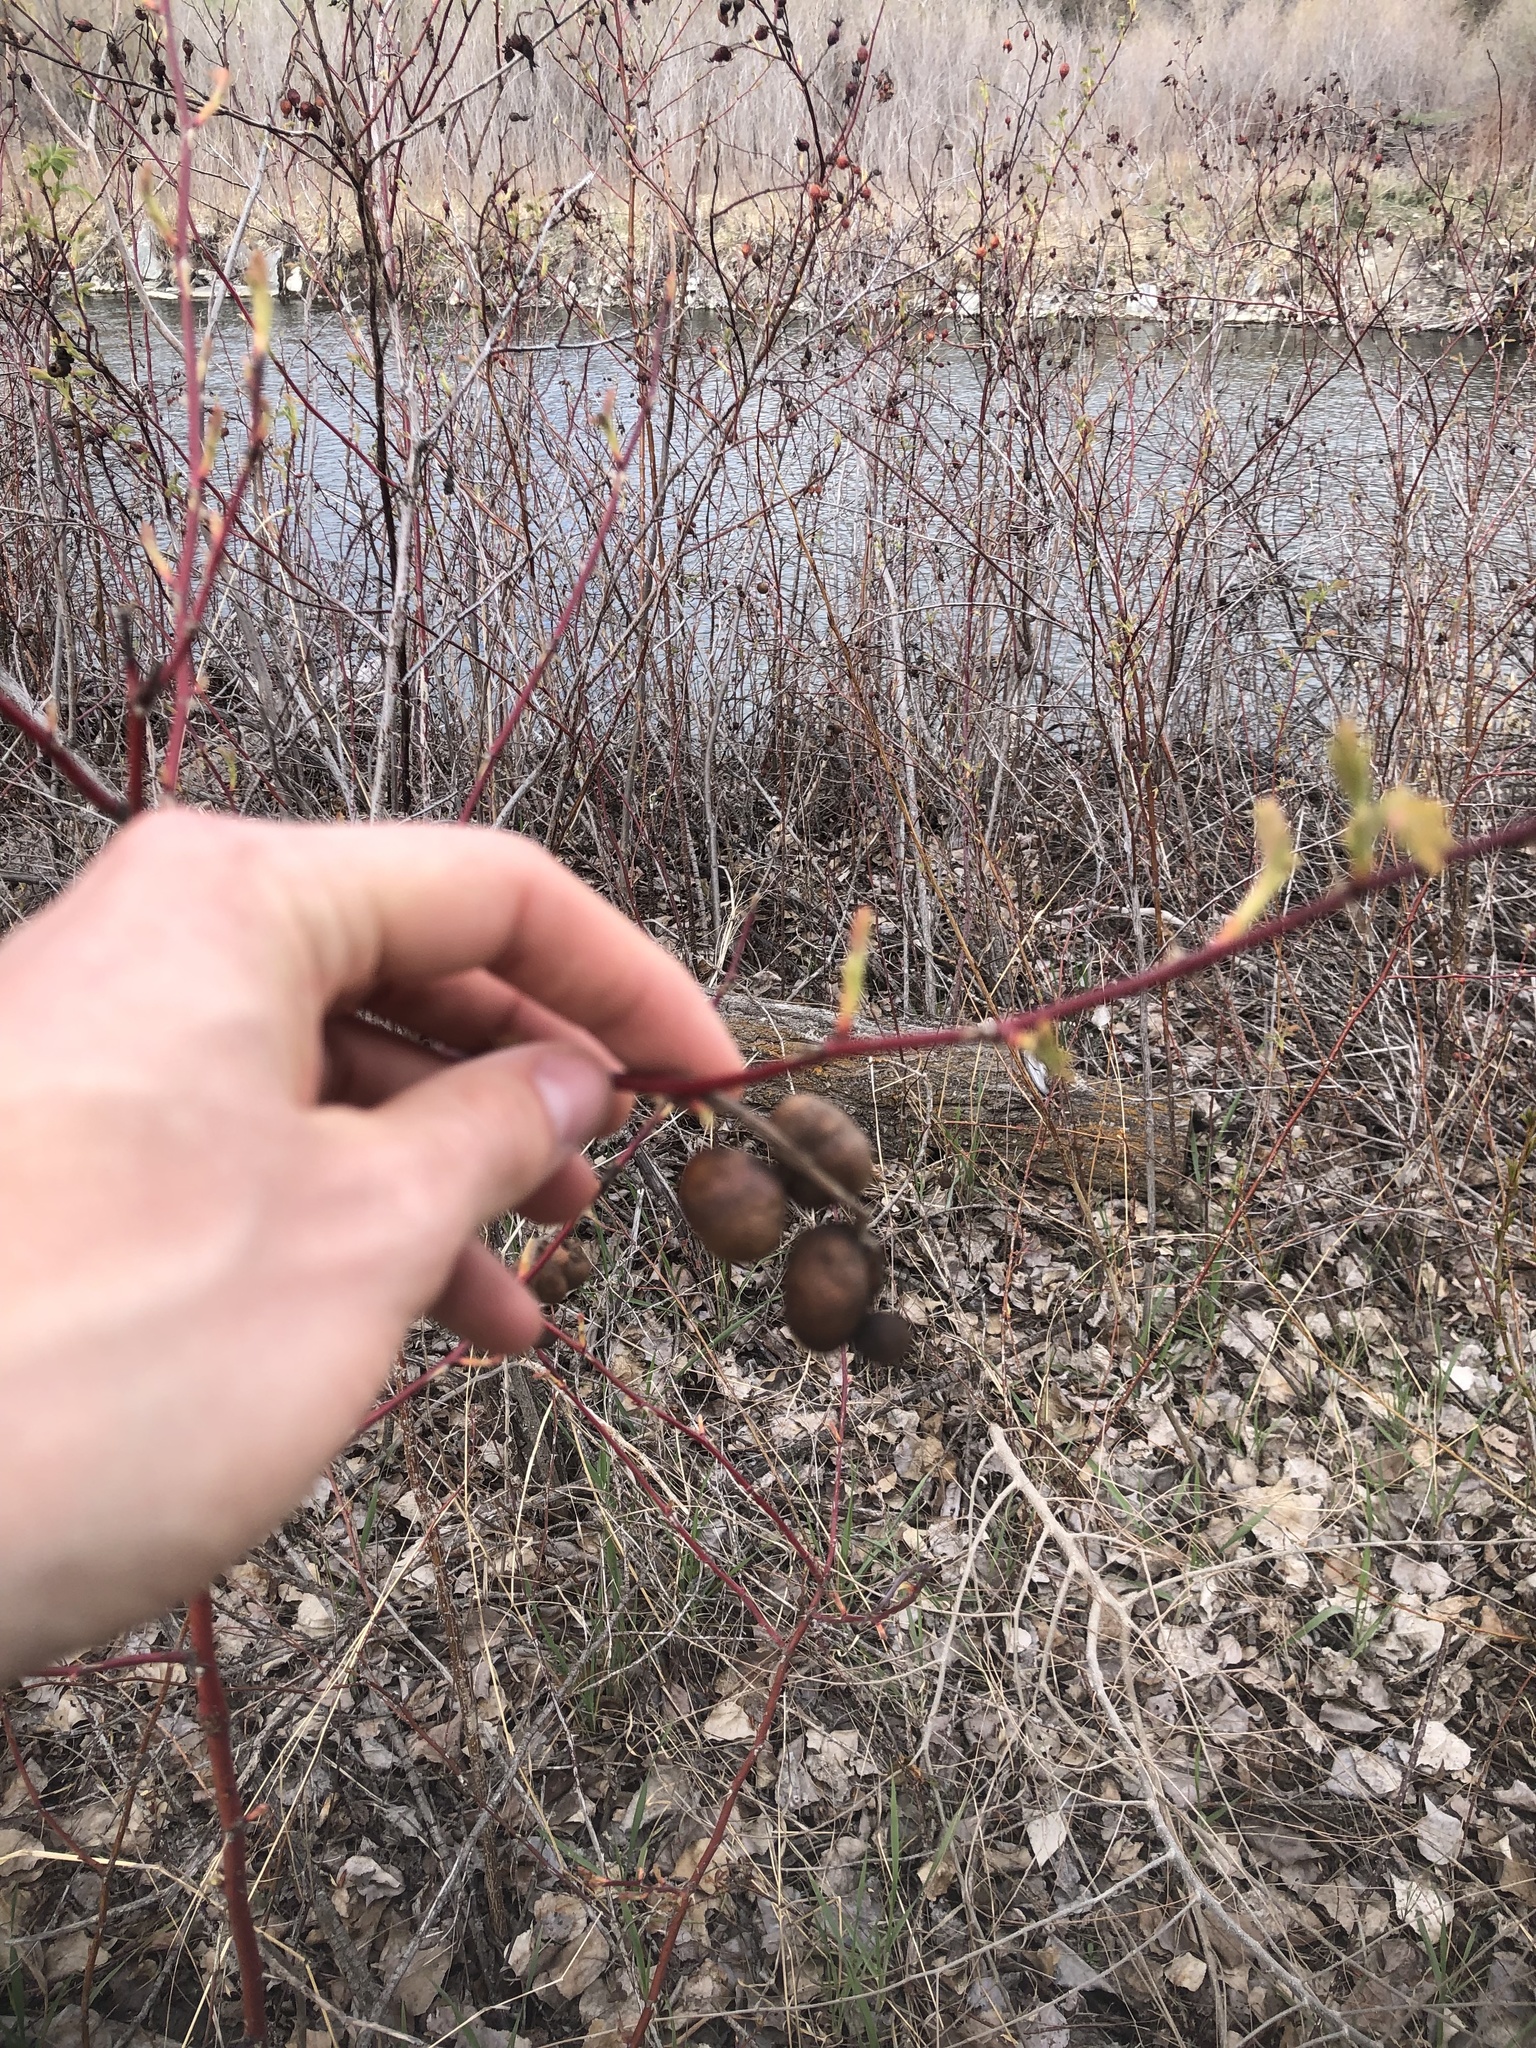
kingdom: Animalia
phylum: Arthropoda
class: Insecta
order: Hymenoptera
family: Cynipidae
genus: Diplolepis
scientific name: Diplolepis variabilis
